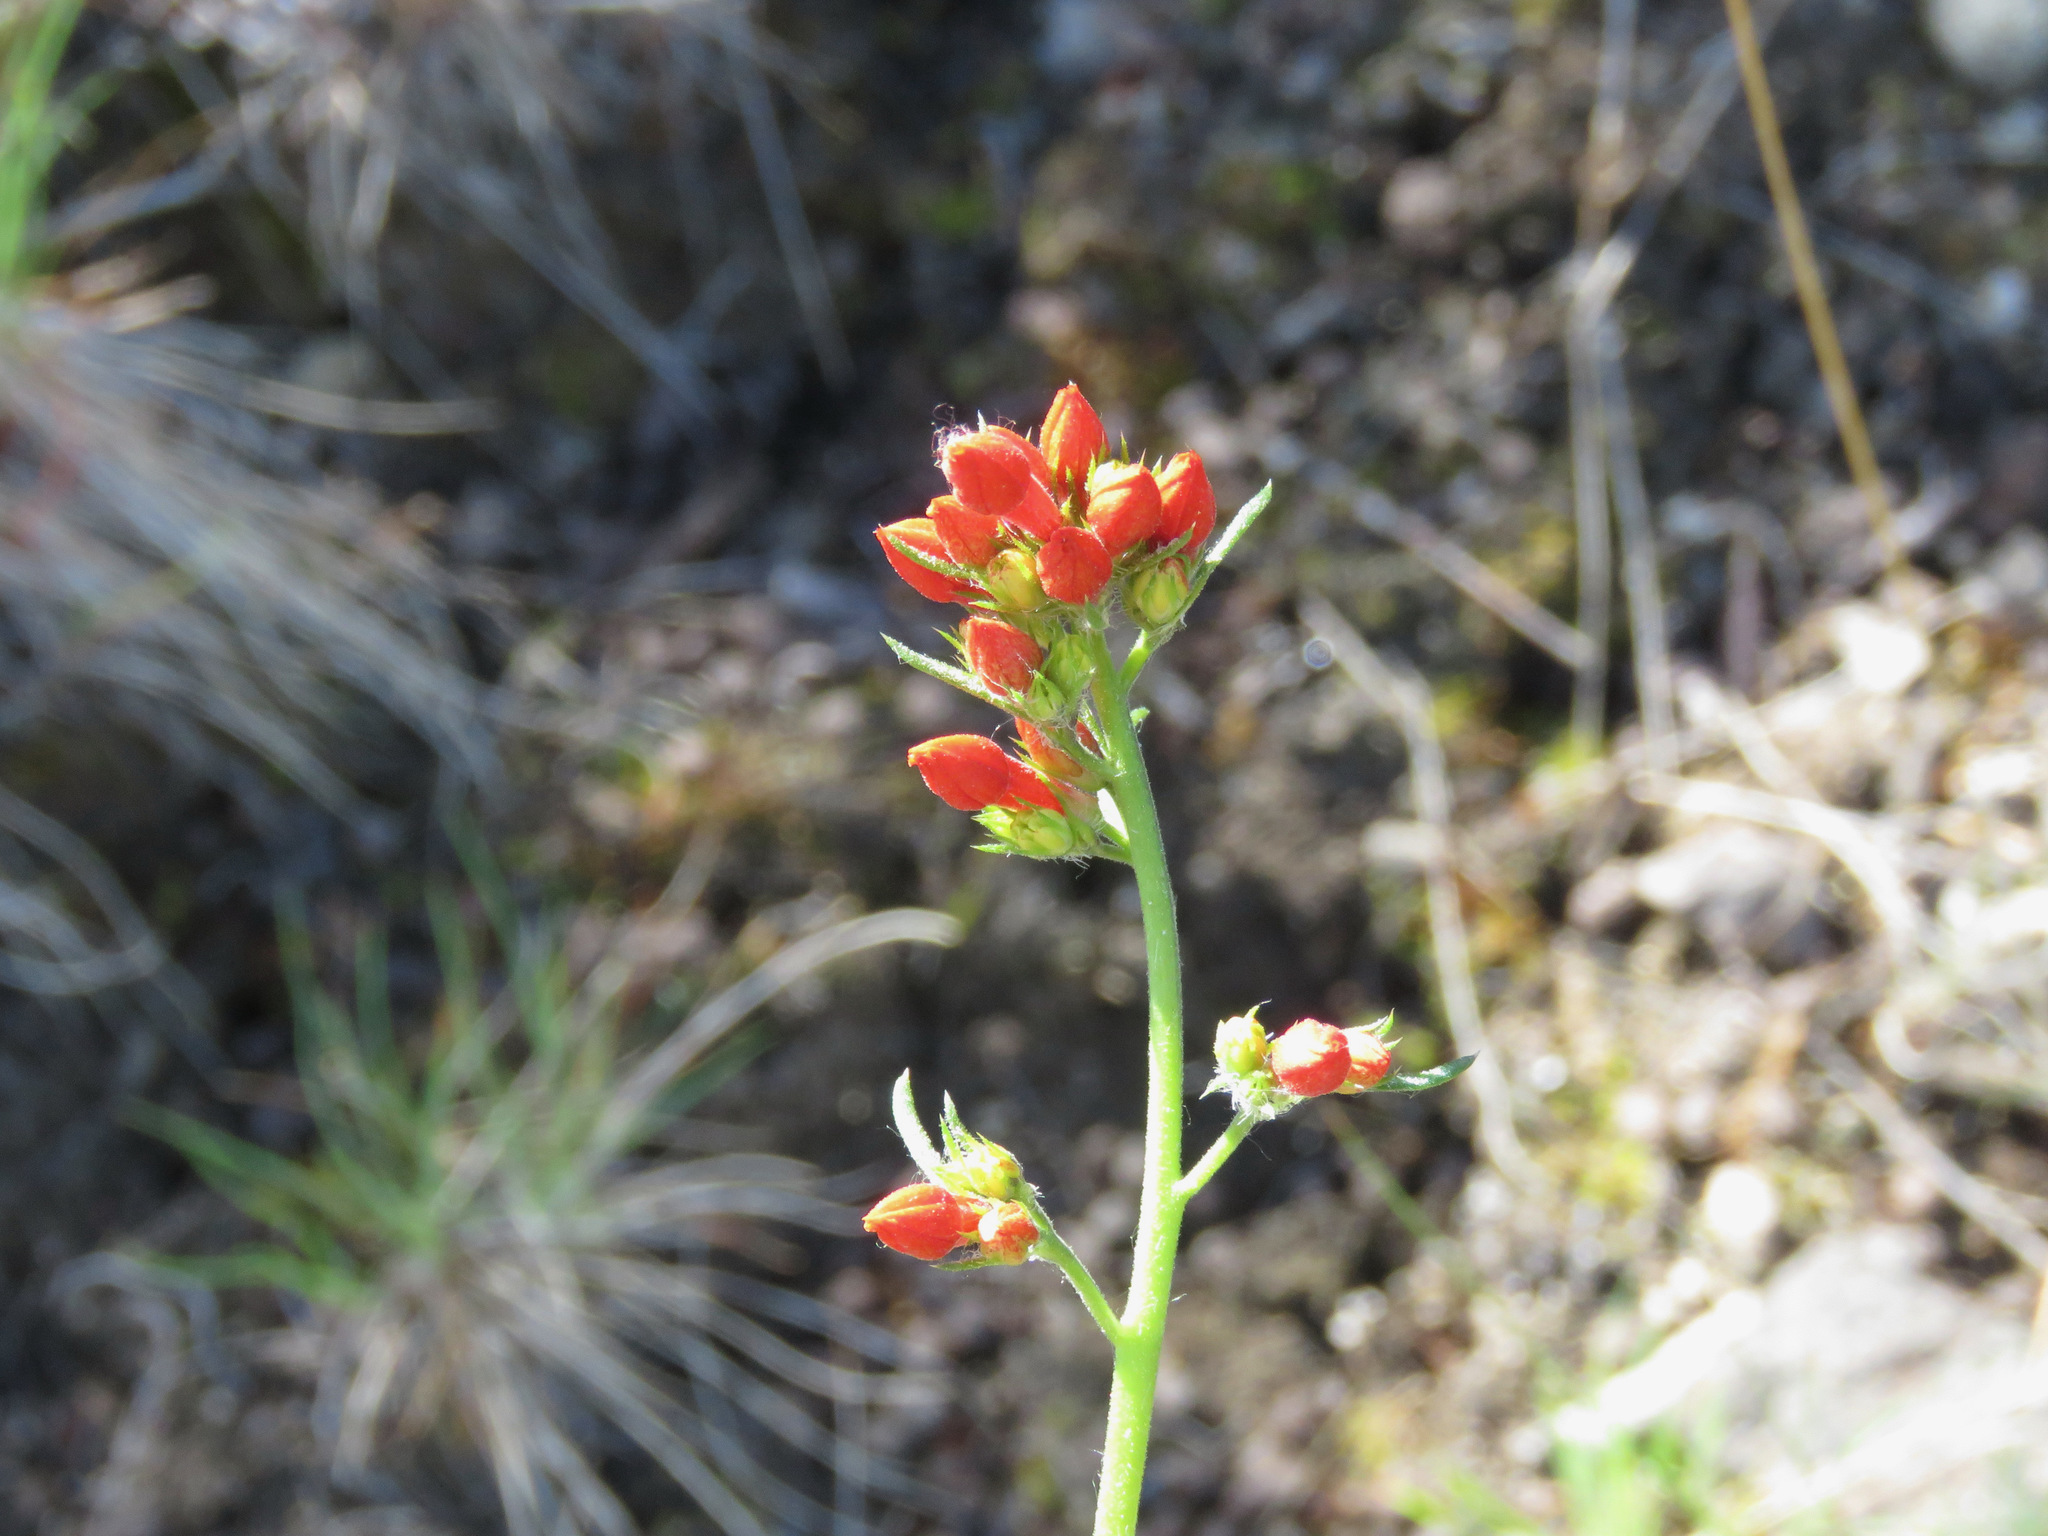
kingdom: Plantae
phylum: Tracheophyta
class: Magnoliopsida
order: Ericales
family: Polemoniaceae
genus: Ipomopsis
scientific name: Ipomopsis aggregata
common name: Scarlet gilia
